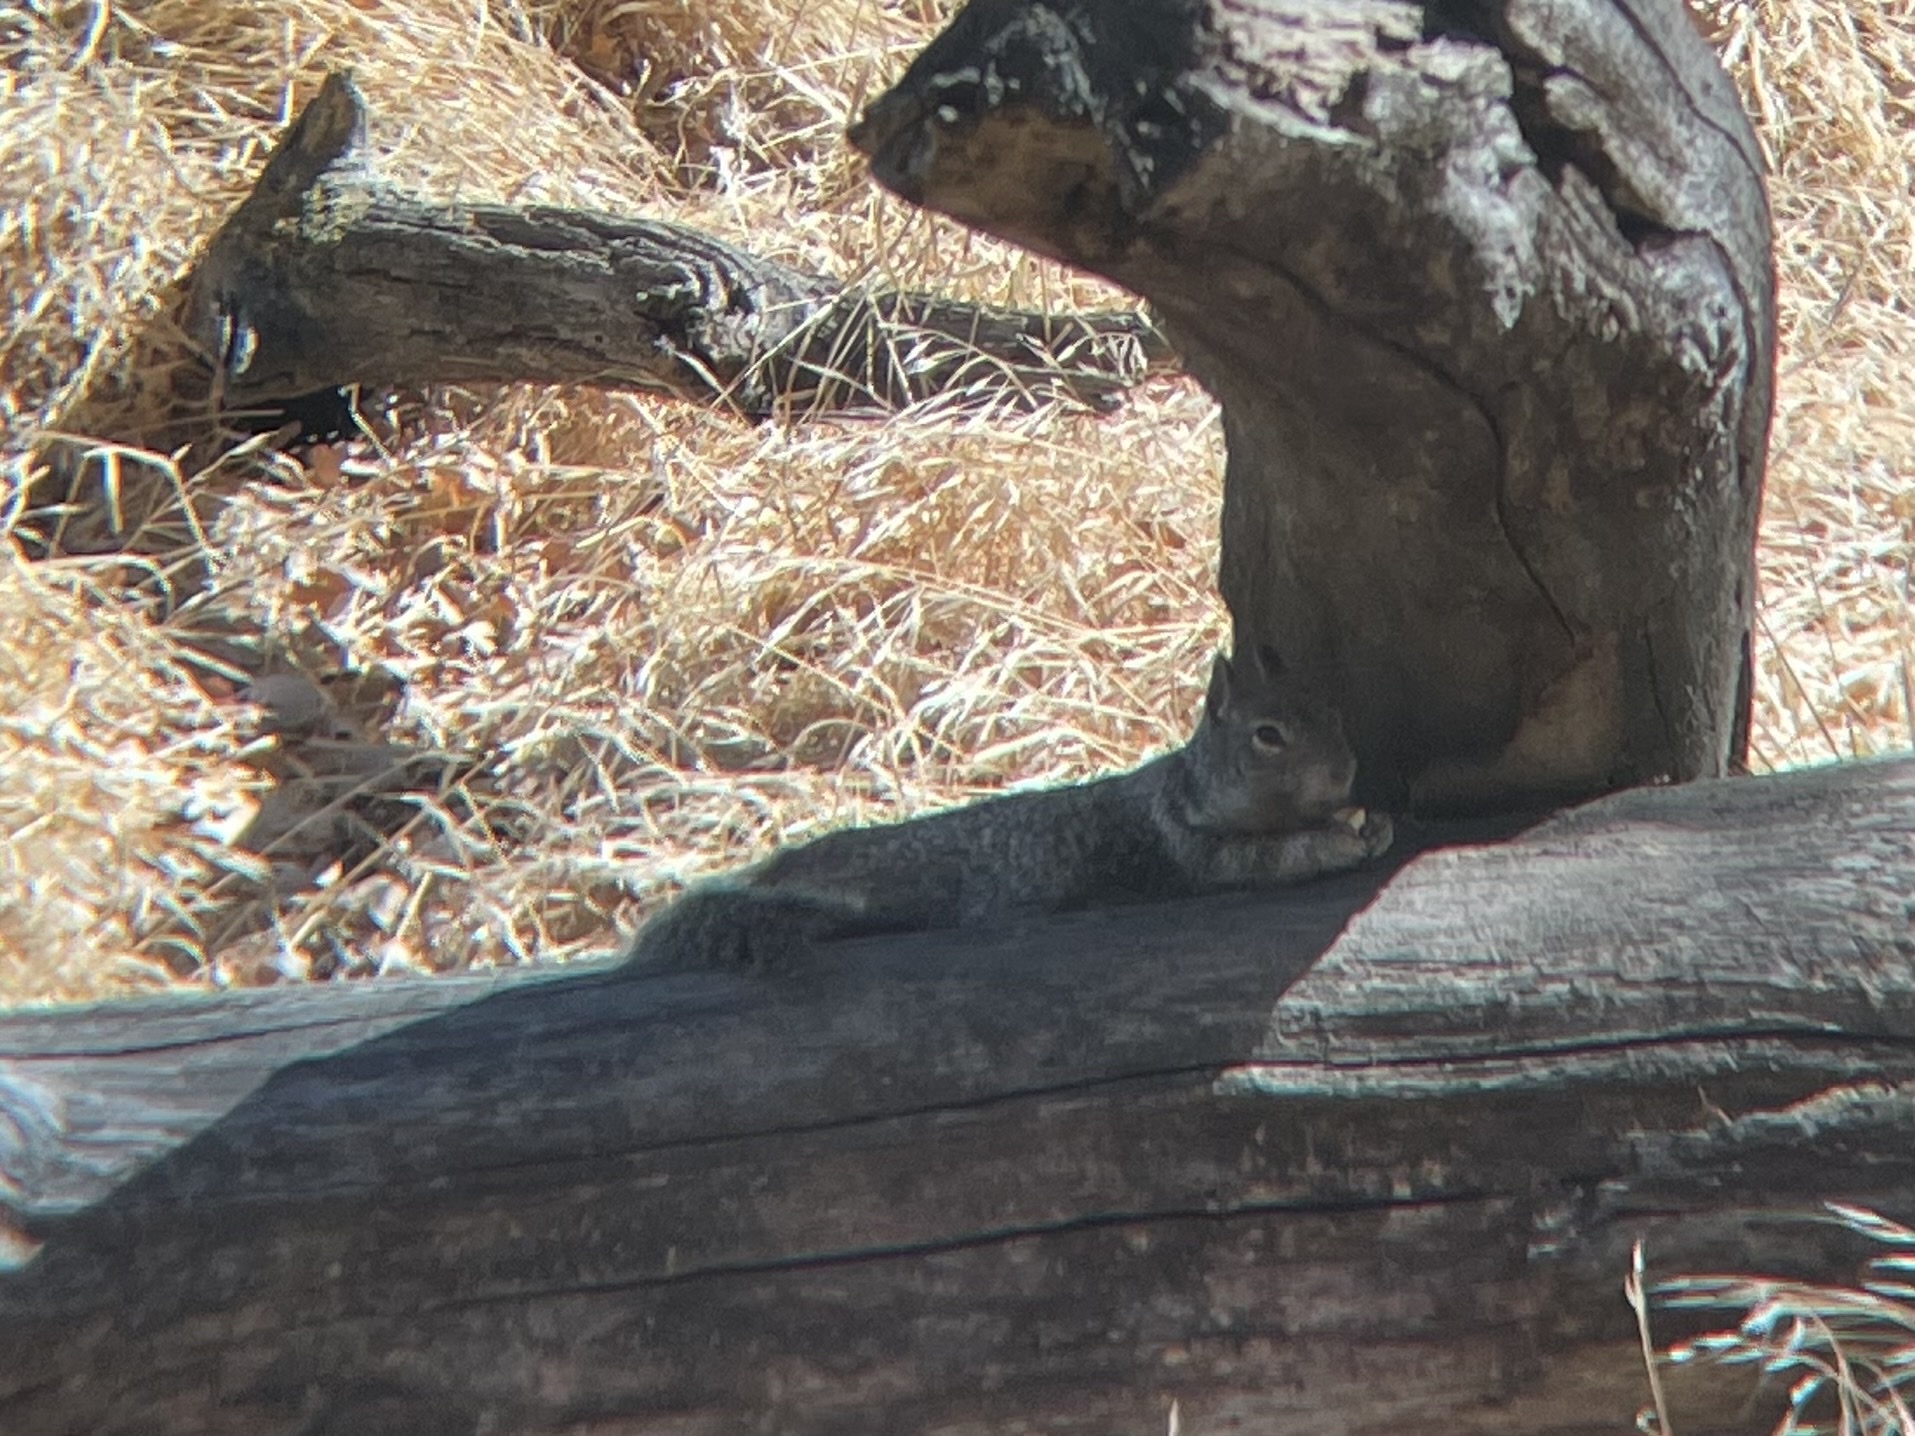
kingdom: Animalia
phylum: Chordata
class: Mammalia
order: Rodentia
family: Sciuridae
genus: Otospermophilus
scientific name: Otospermophilus beecheyi
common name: California ground squirrel
